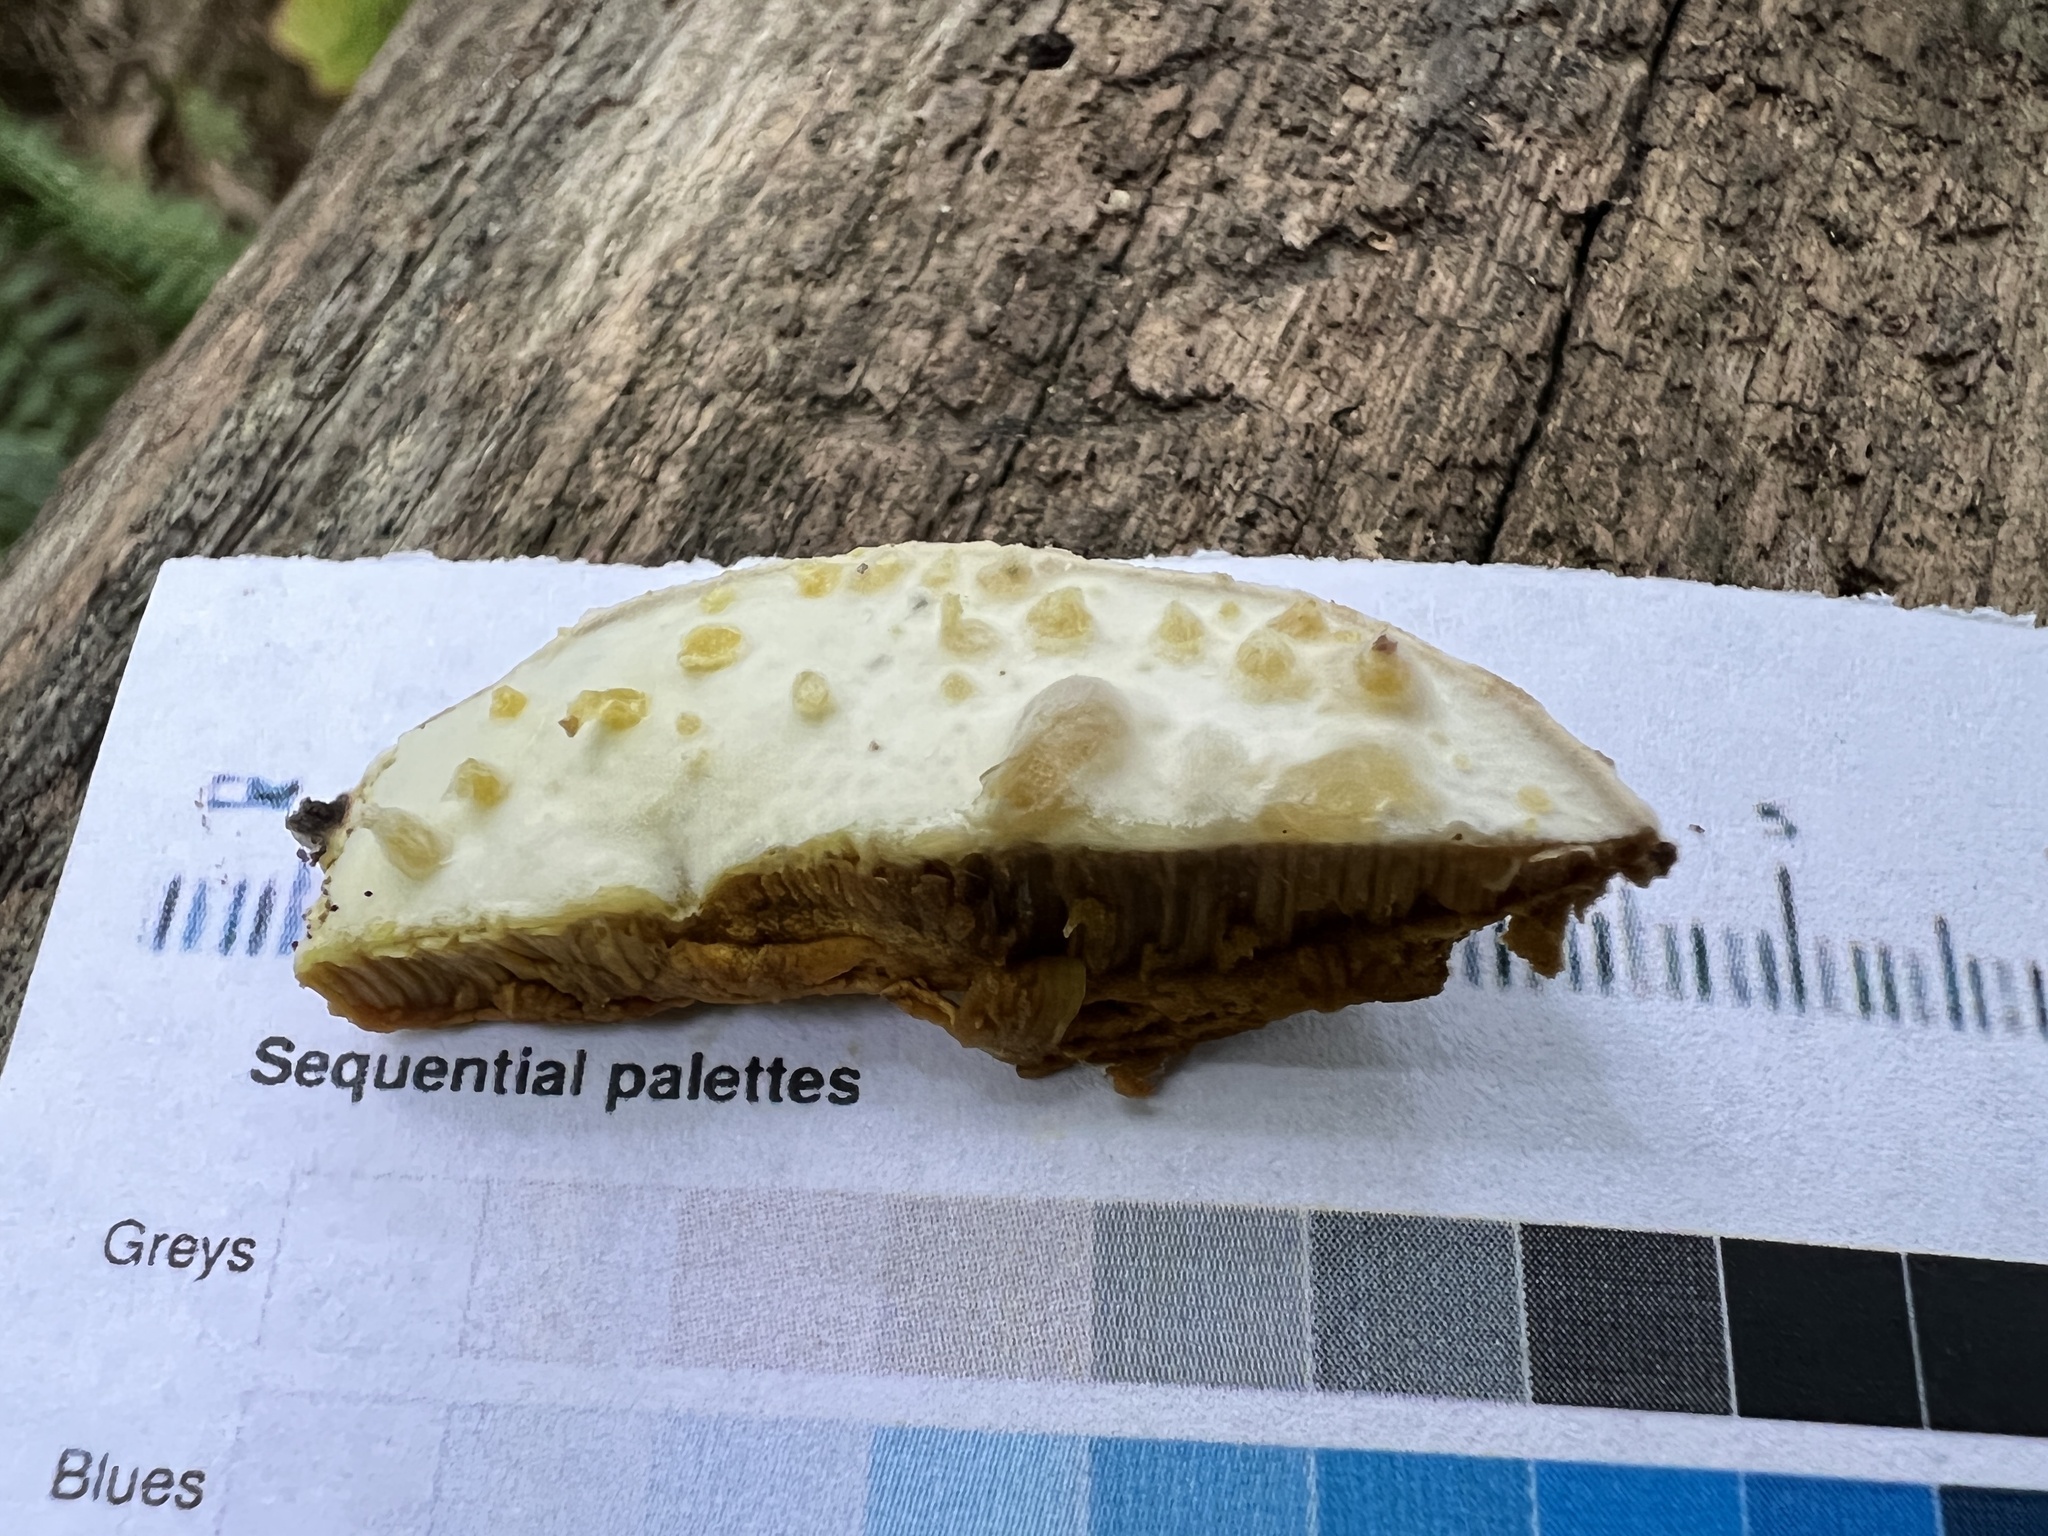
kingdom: Fungi
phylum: Ascomycota
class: Sordariomycetes
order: Hypocreales
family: Hypocreaceae
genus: Hypomyces
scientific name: Hypomyces chlorinus
